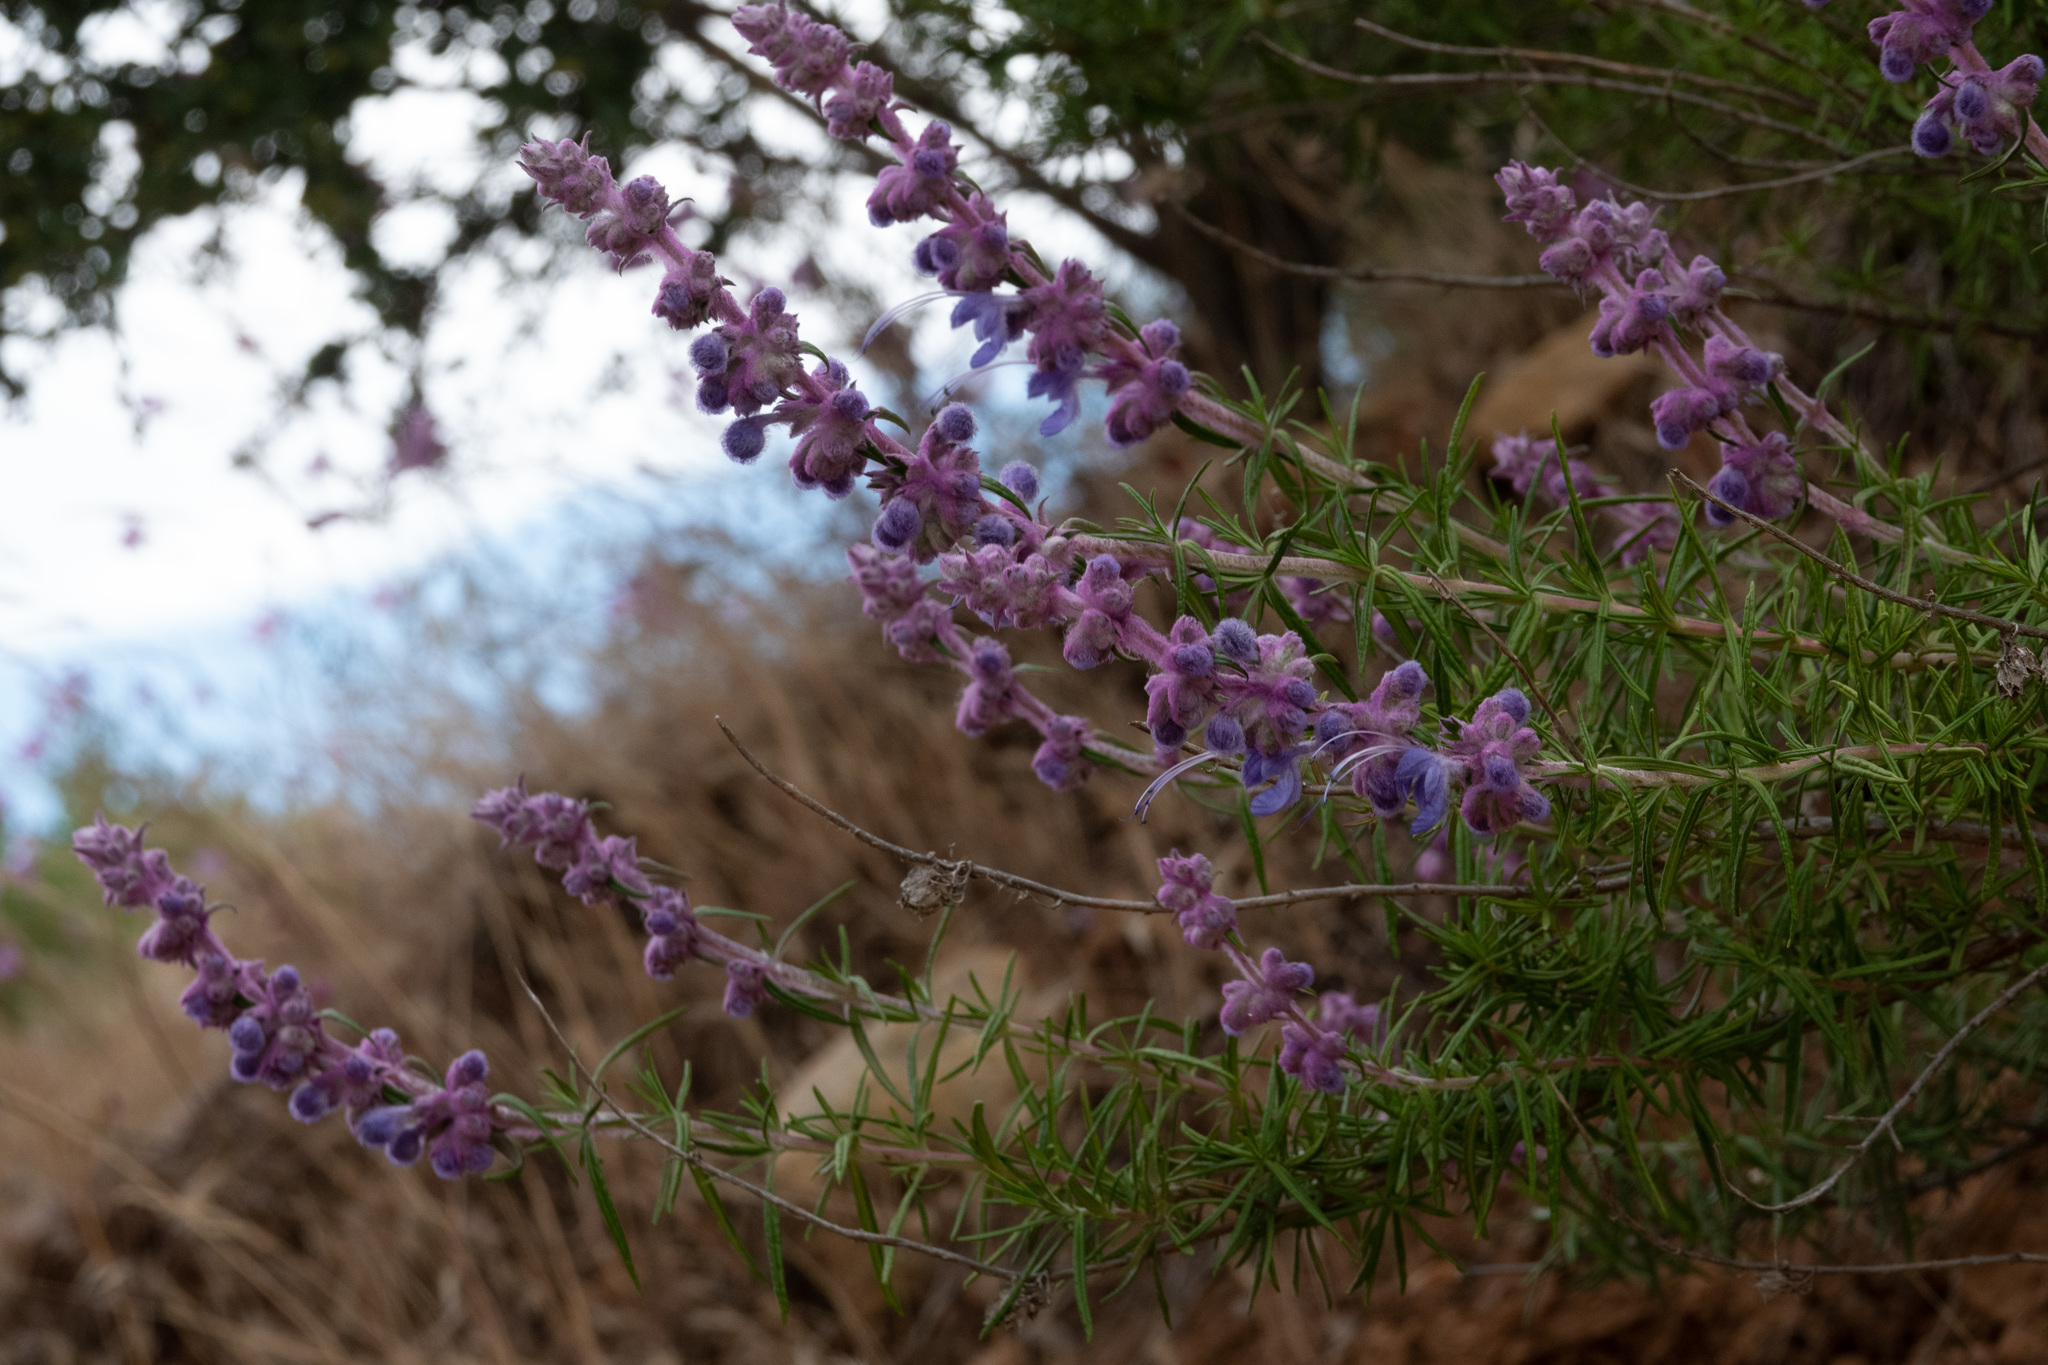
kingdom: Plantae
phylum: Tracheophyta
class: Magnoliopsida
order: Lamiales
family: Lamiaceae
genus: Trichostema
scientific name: Trichostema lanatum
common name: Woolly bluecurls
